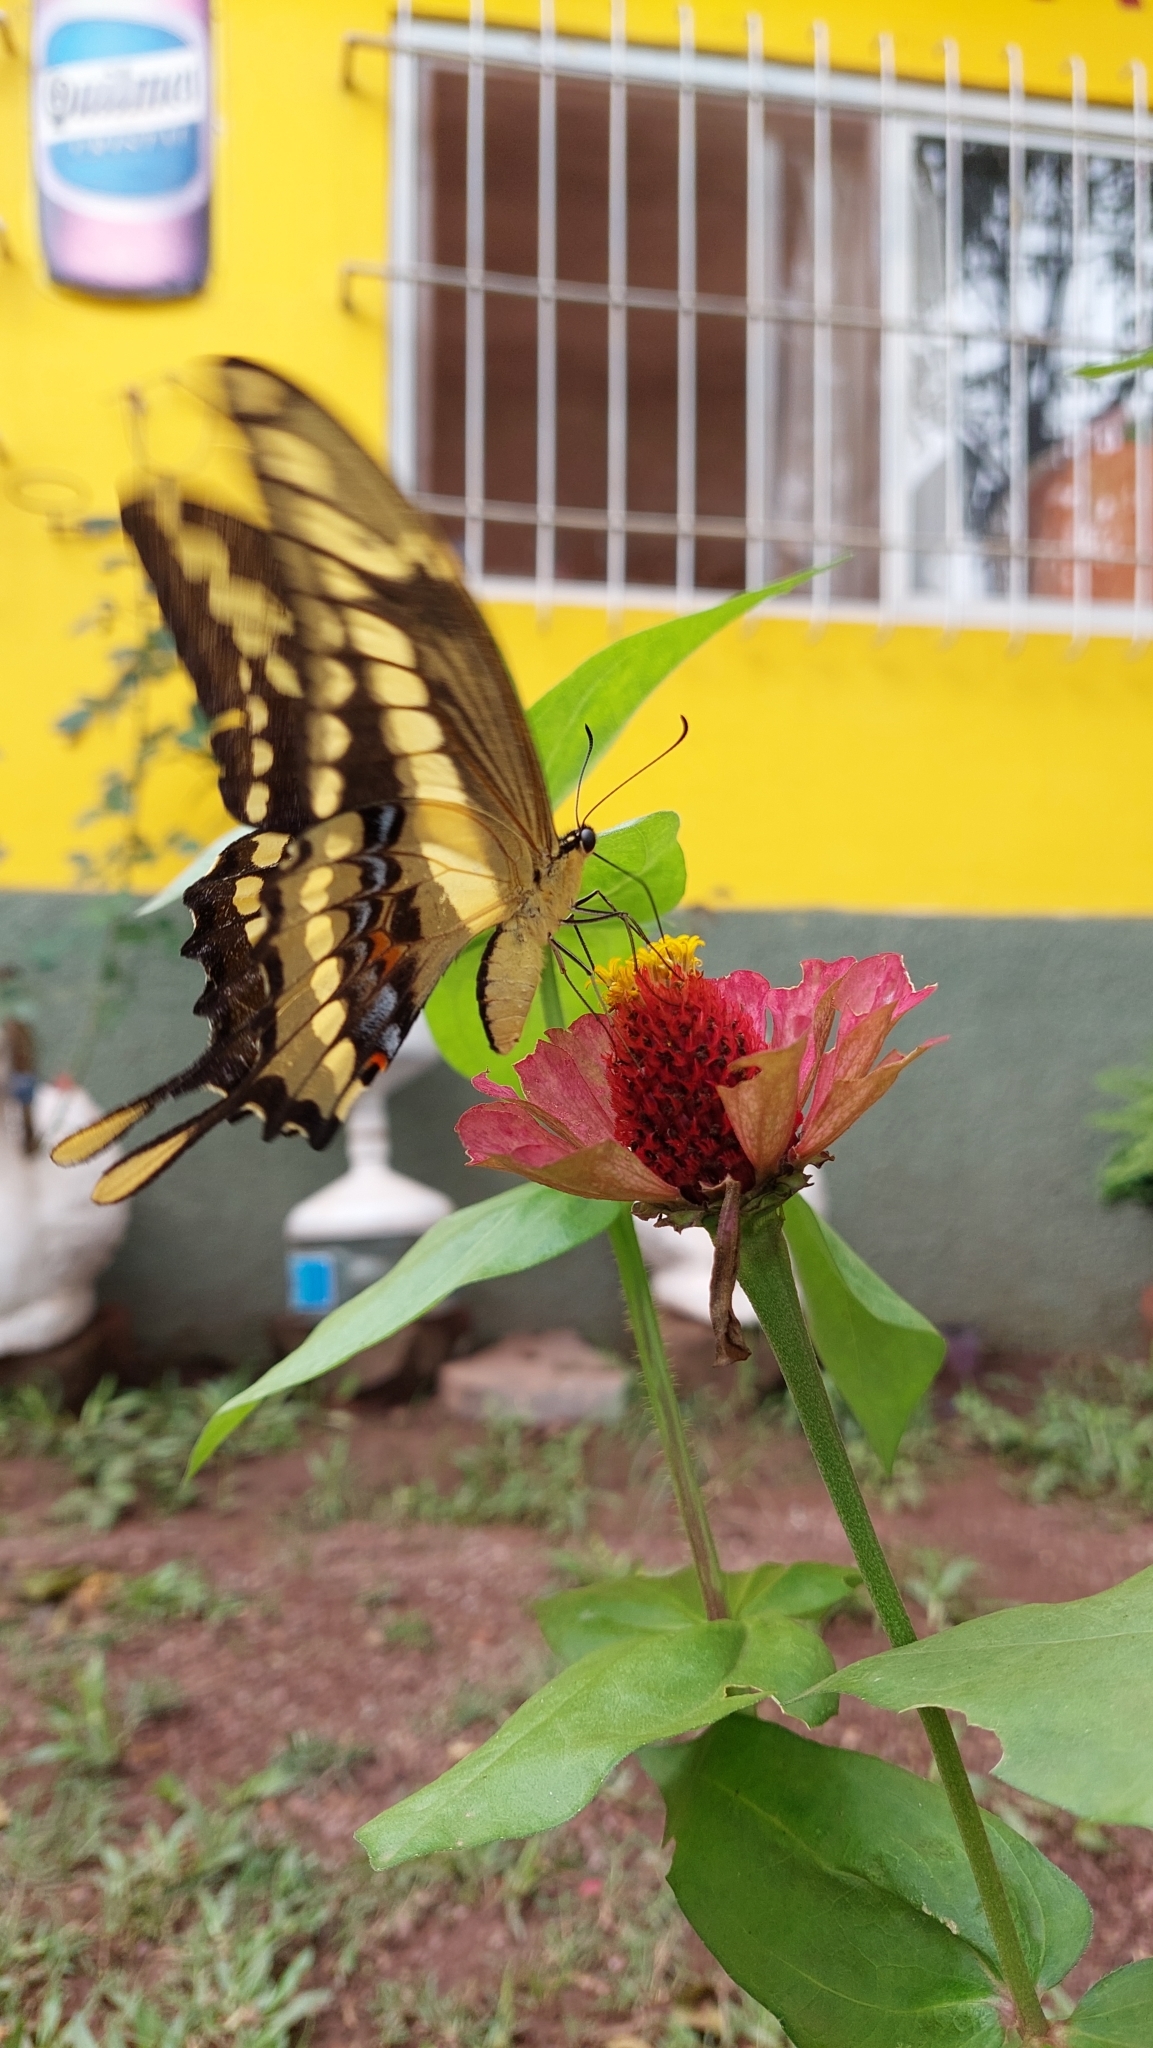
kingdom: Animalia
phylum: Arthropoda
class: Insecta
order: Lepidoptera
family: Papilionidae
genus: Papilio
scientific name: Papilio thoas
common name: King swallowtail
